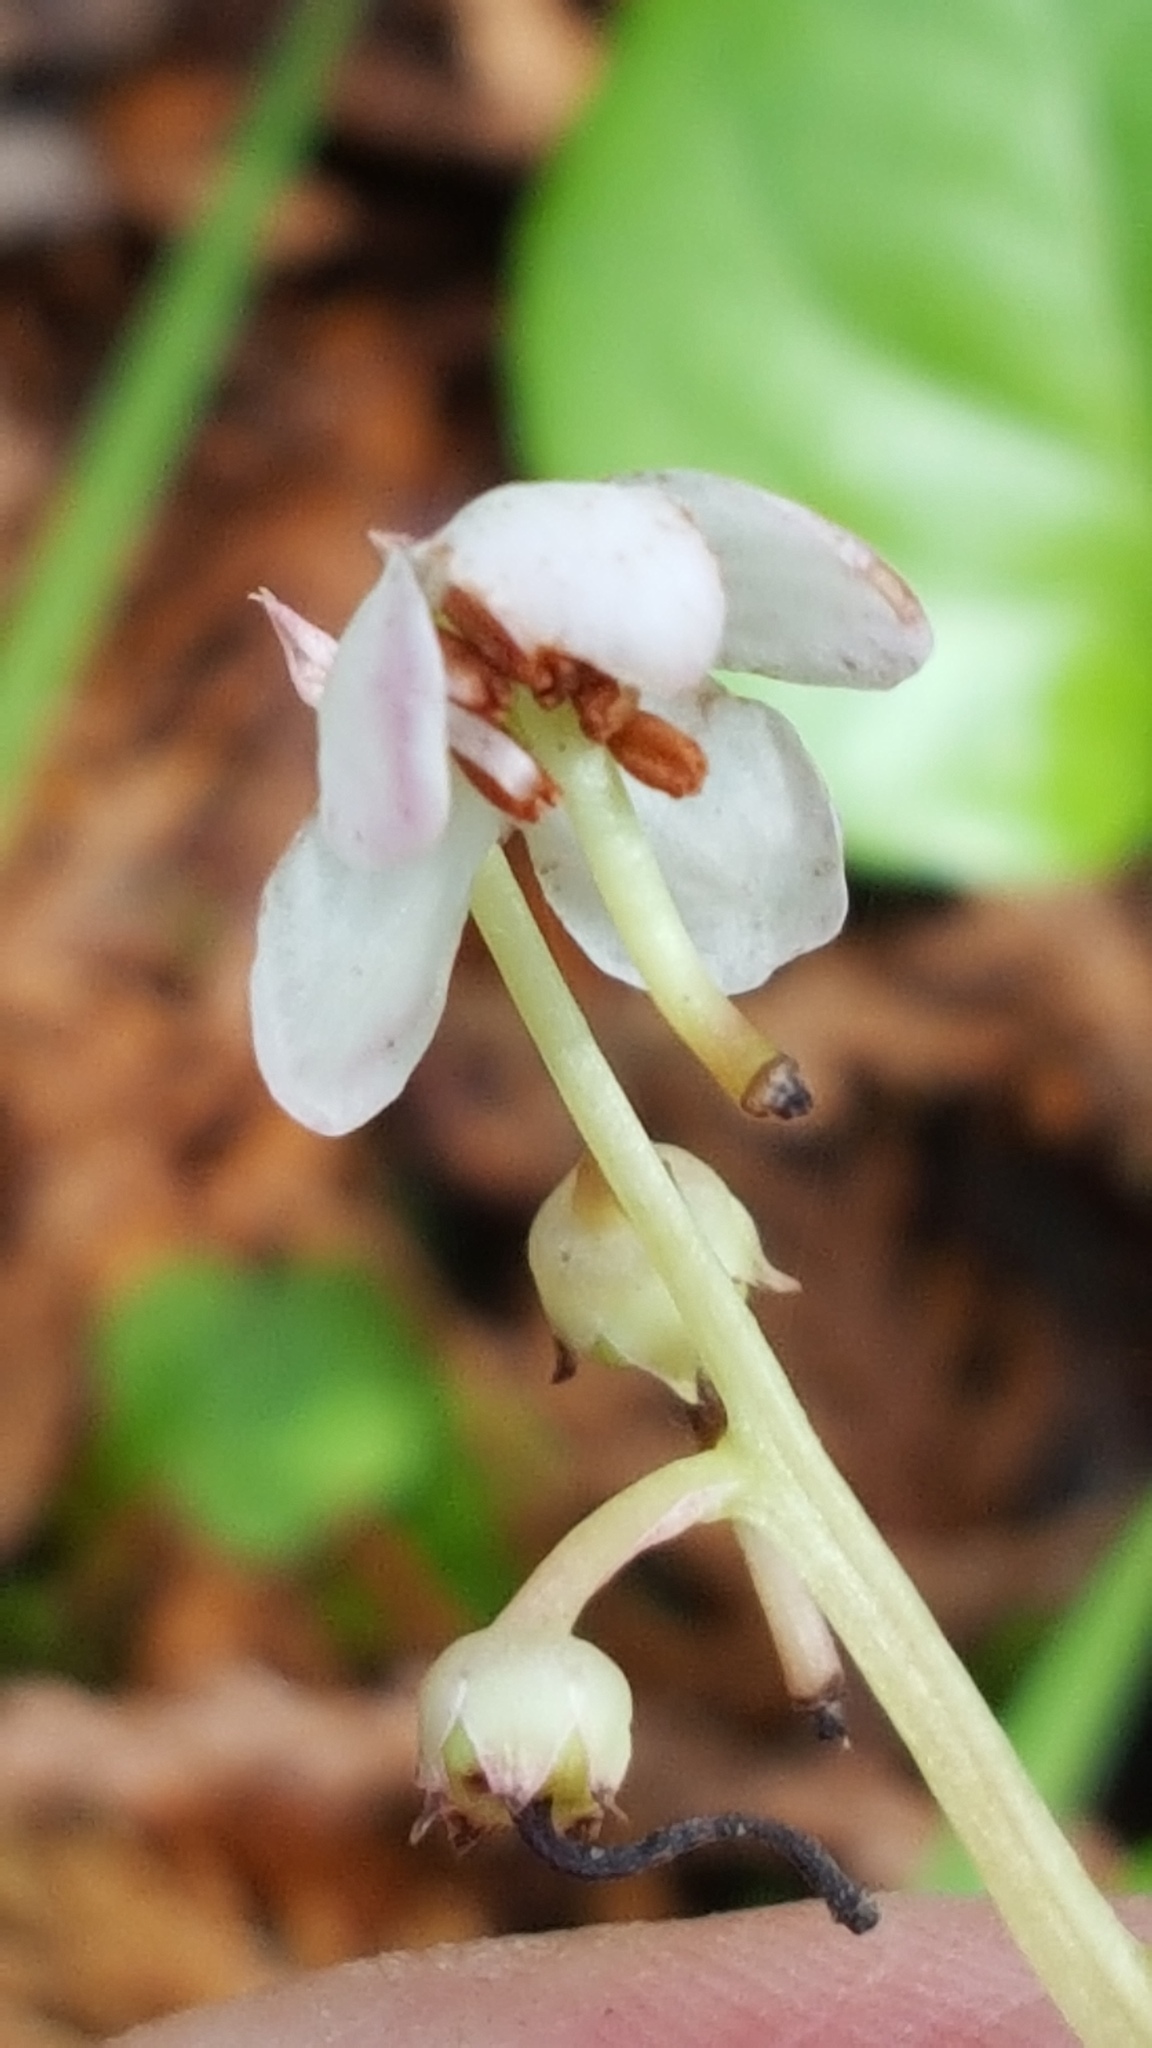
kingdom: Plantae
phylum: Tracheophyta
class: Magnoliopsida
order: Ericales
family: Ericaceae
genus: Pyrola
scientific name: Pyrola asarifolia
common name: Bog wintergreen
